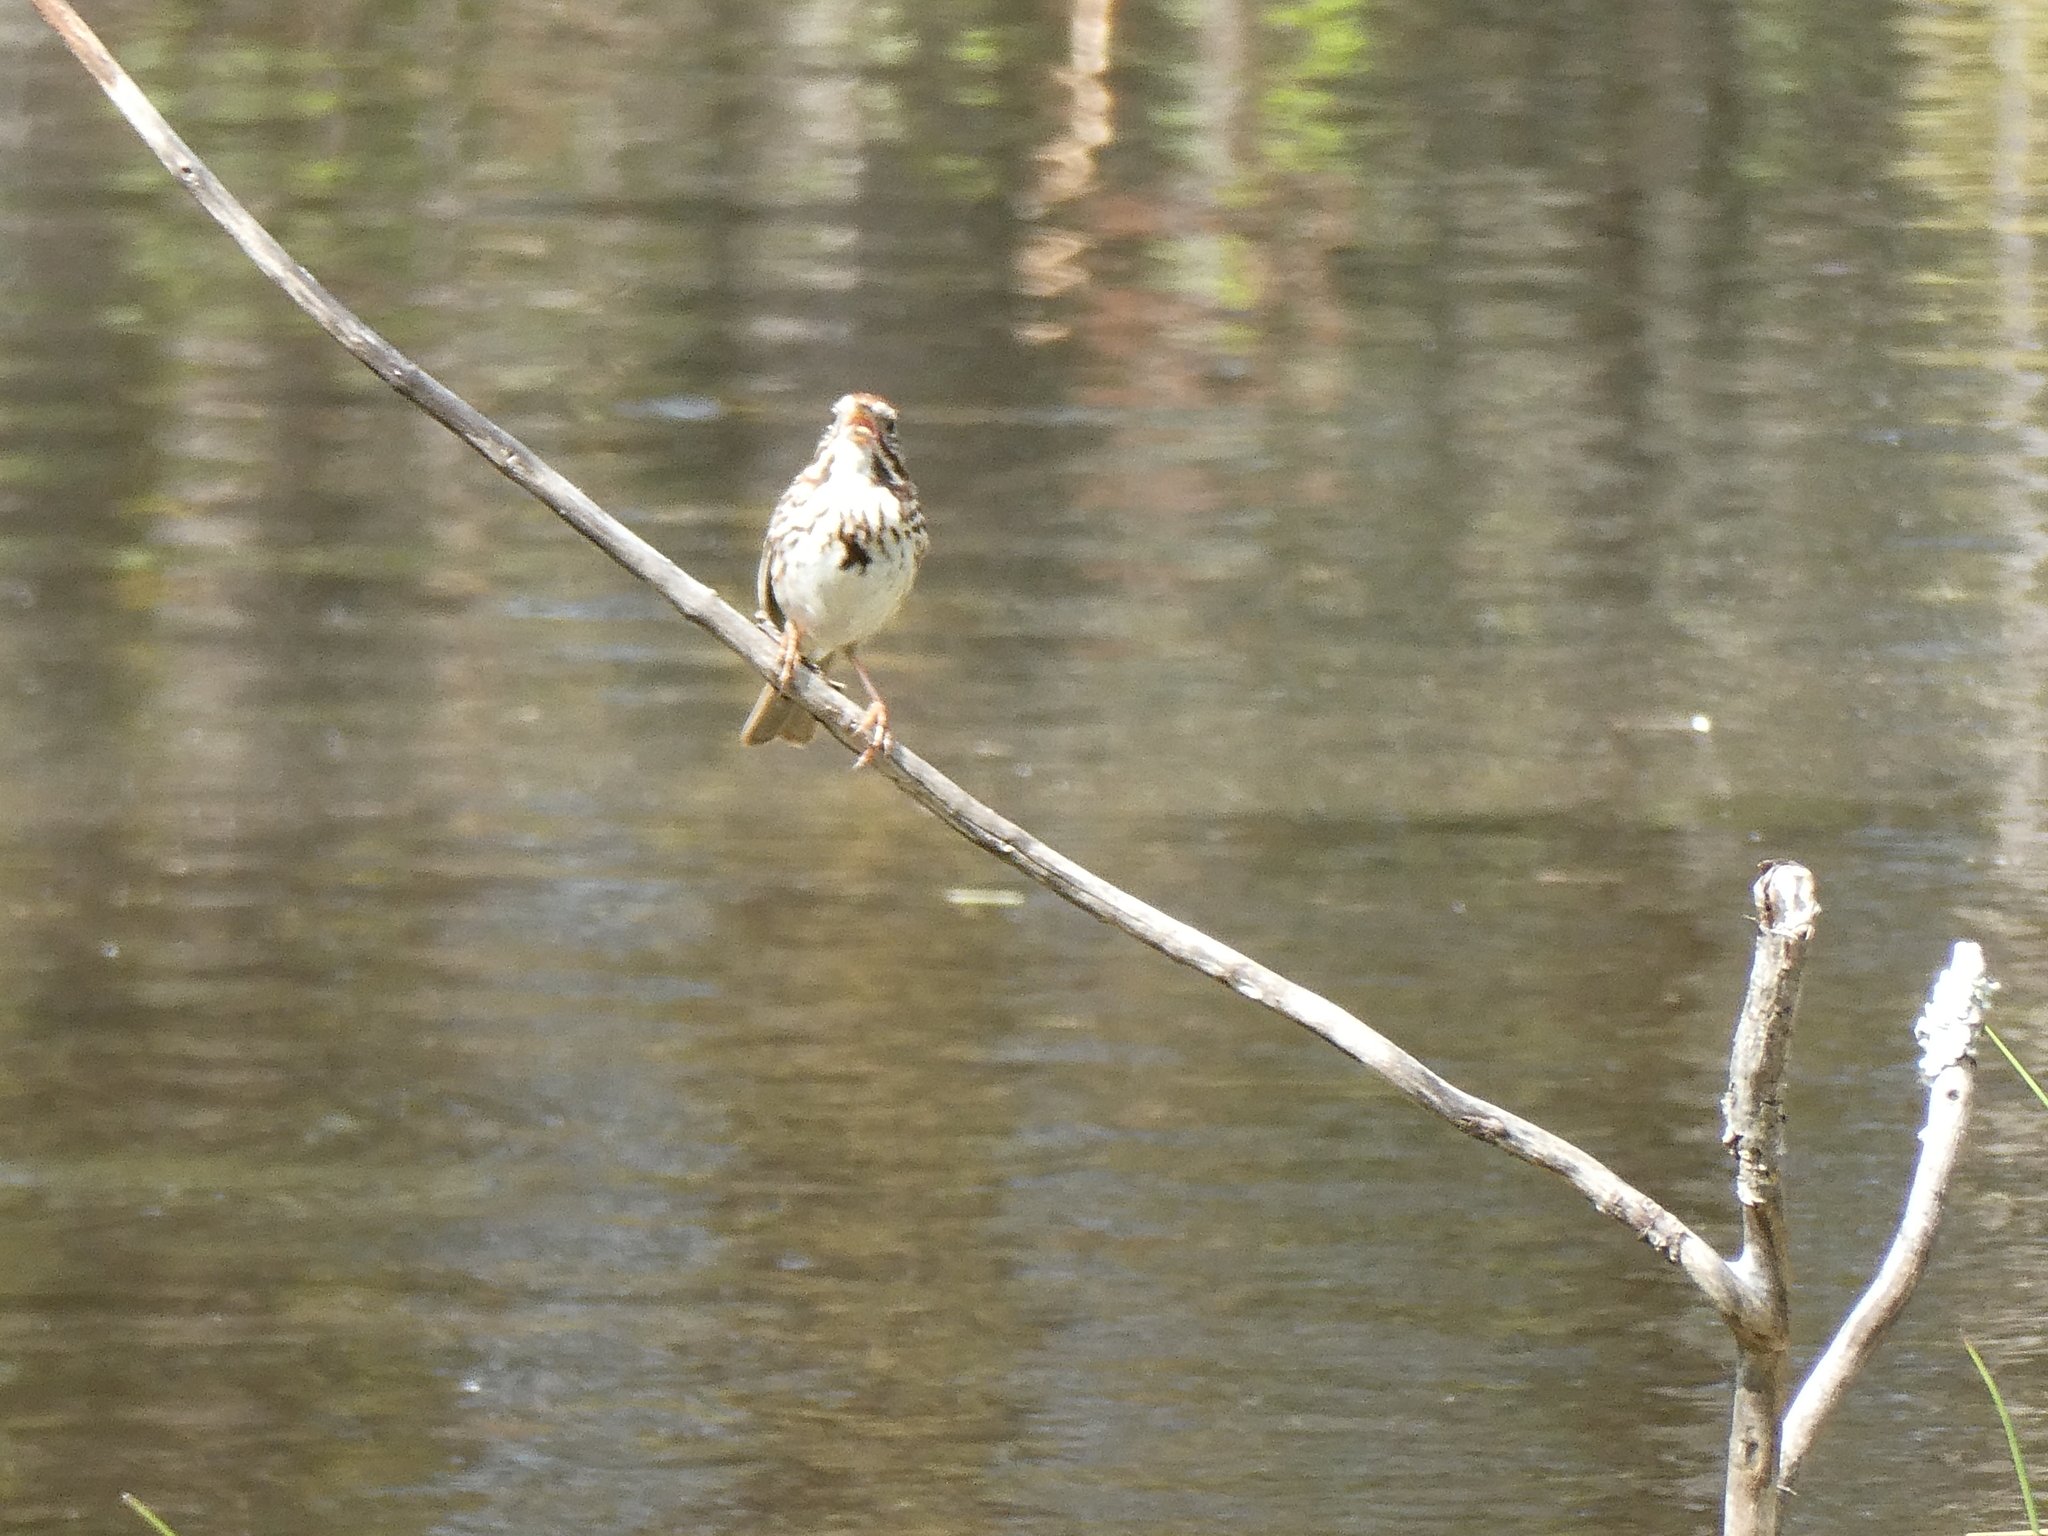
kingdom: Animalia
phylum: Chordata
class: Aves
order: Passeriformes
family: Passerellidae
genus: Melospiza
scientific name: Melospiza melodia
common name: Song sparrow
